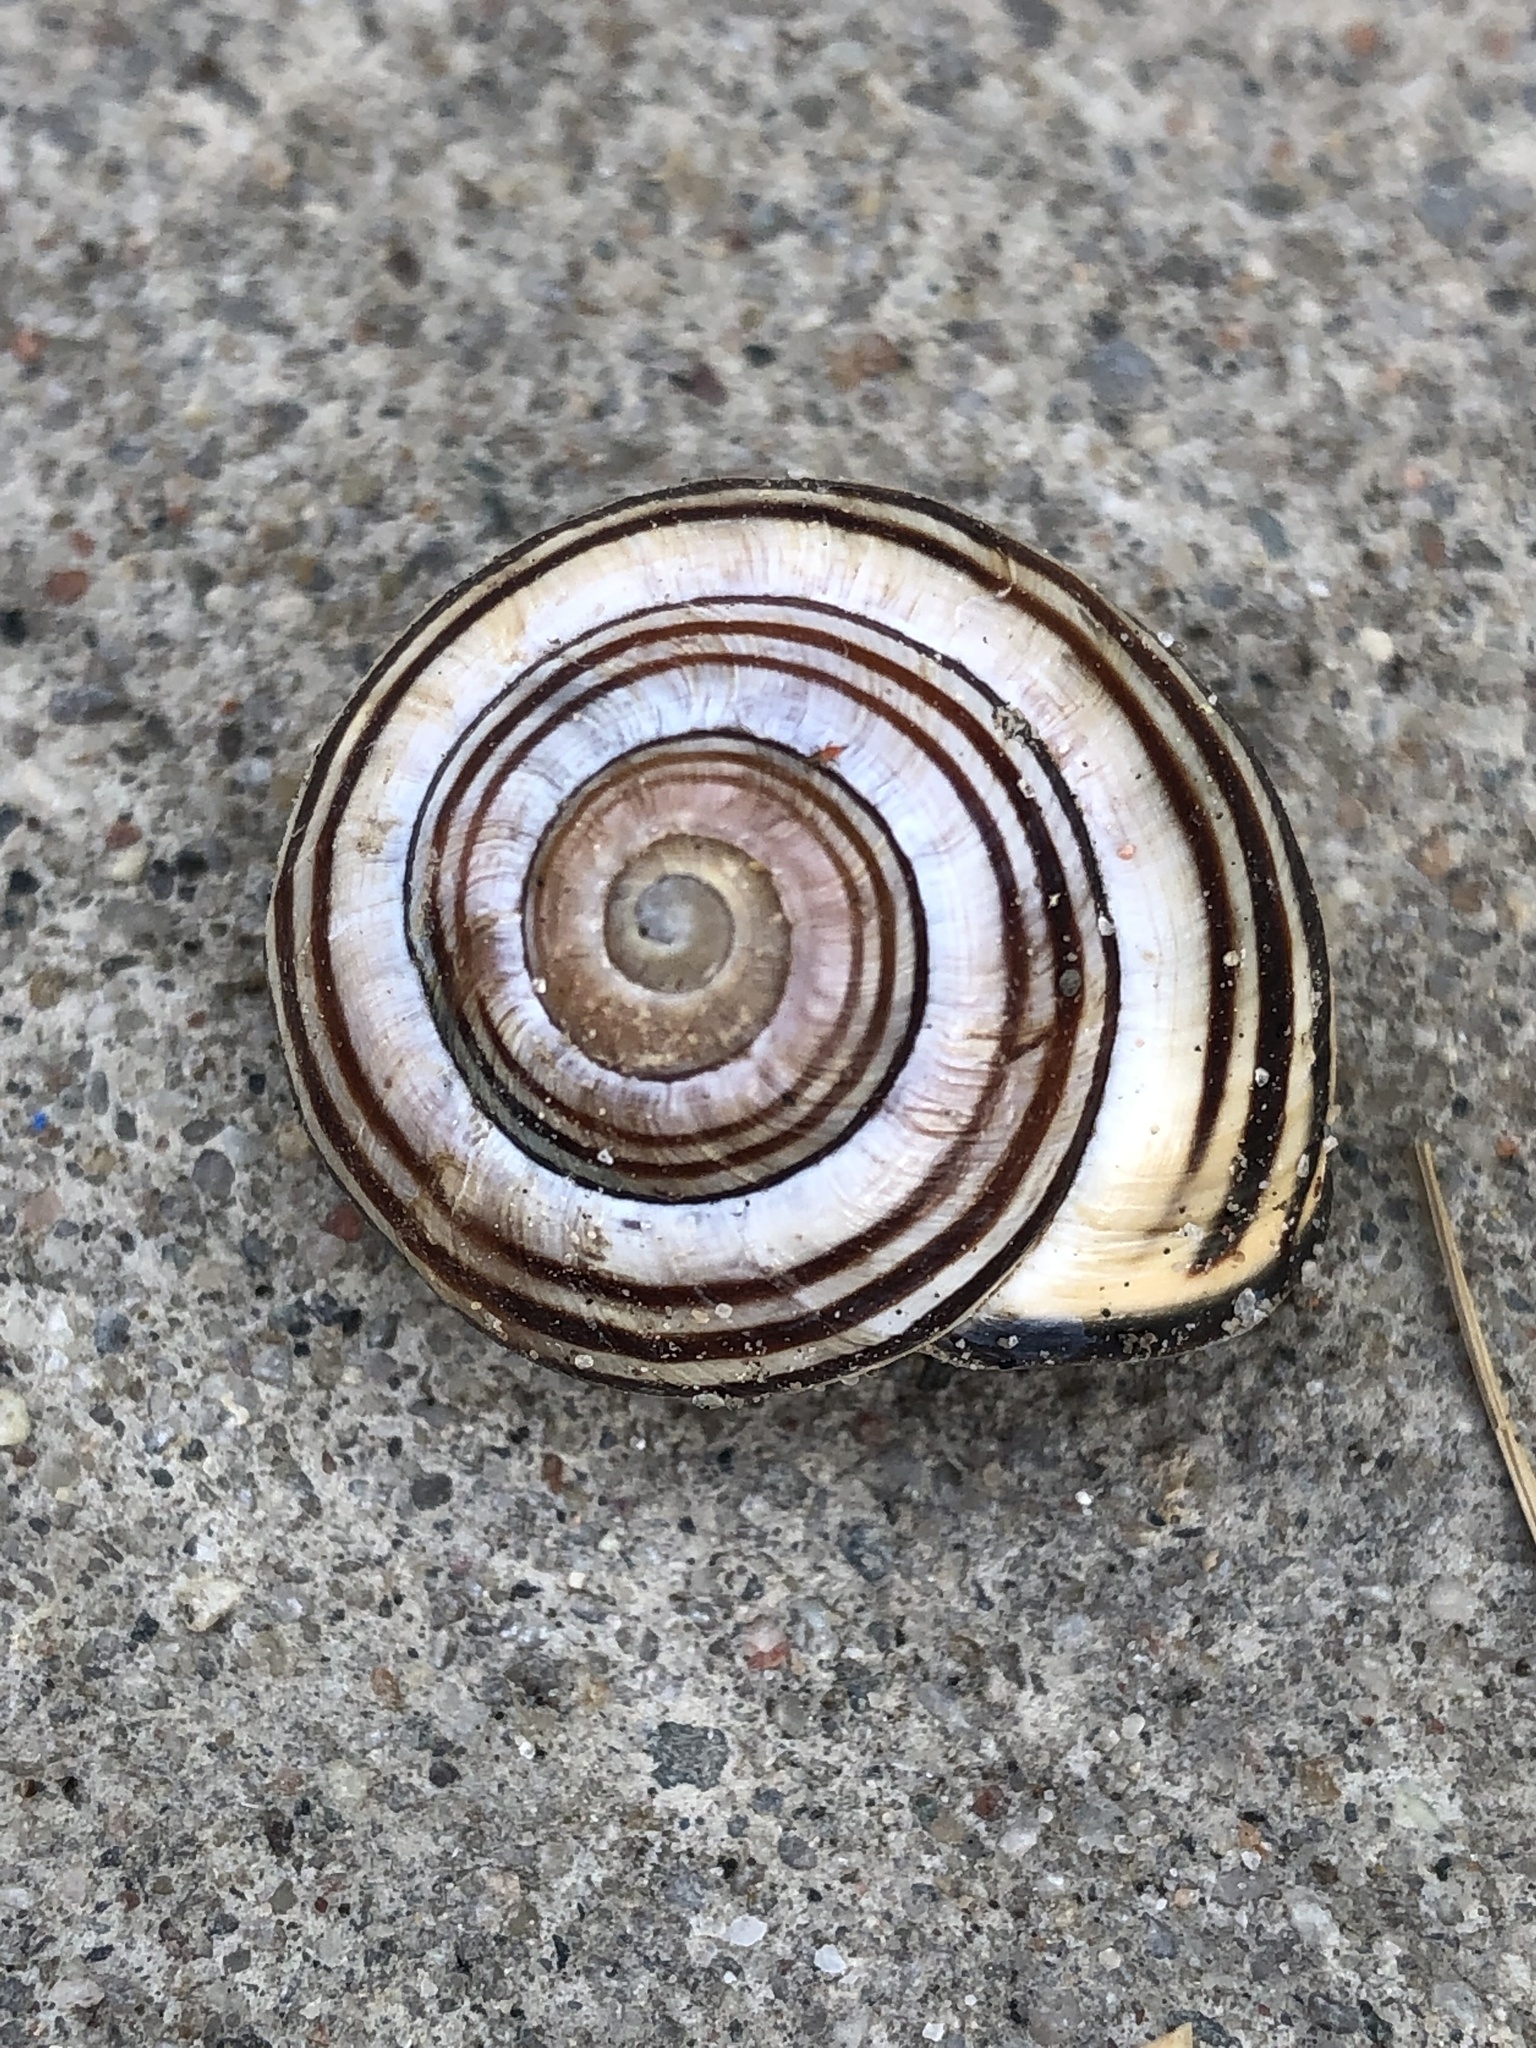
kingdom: Animalia
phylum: Mollusca
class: Gastropoda
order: Stylommatophora
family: Helicidae
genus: Cepaea
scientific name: Cepaea nemoralis
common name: Grovesnail
